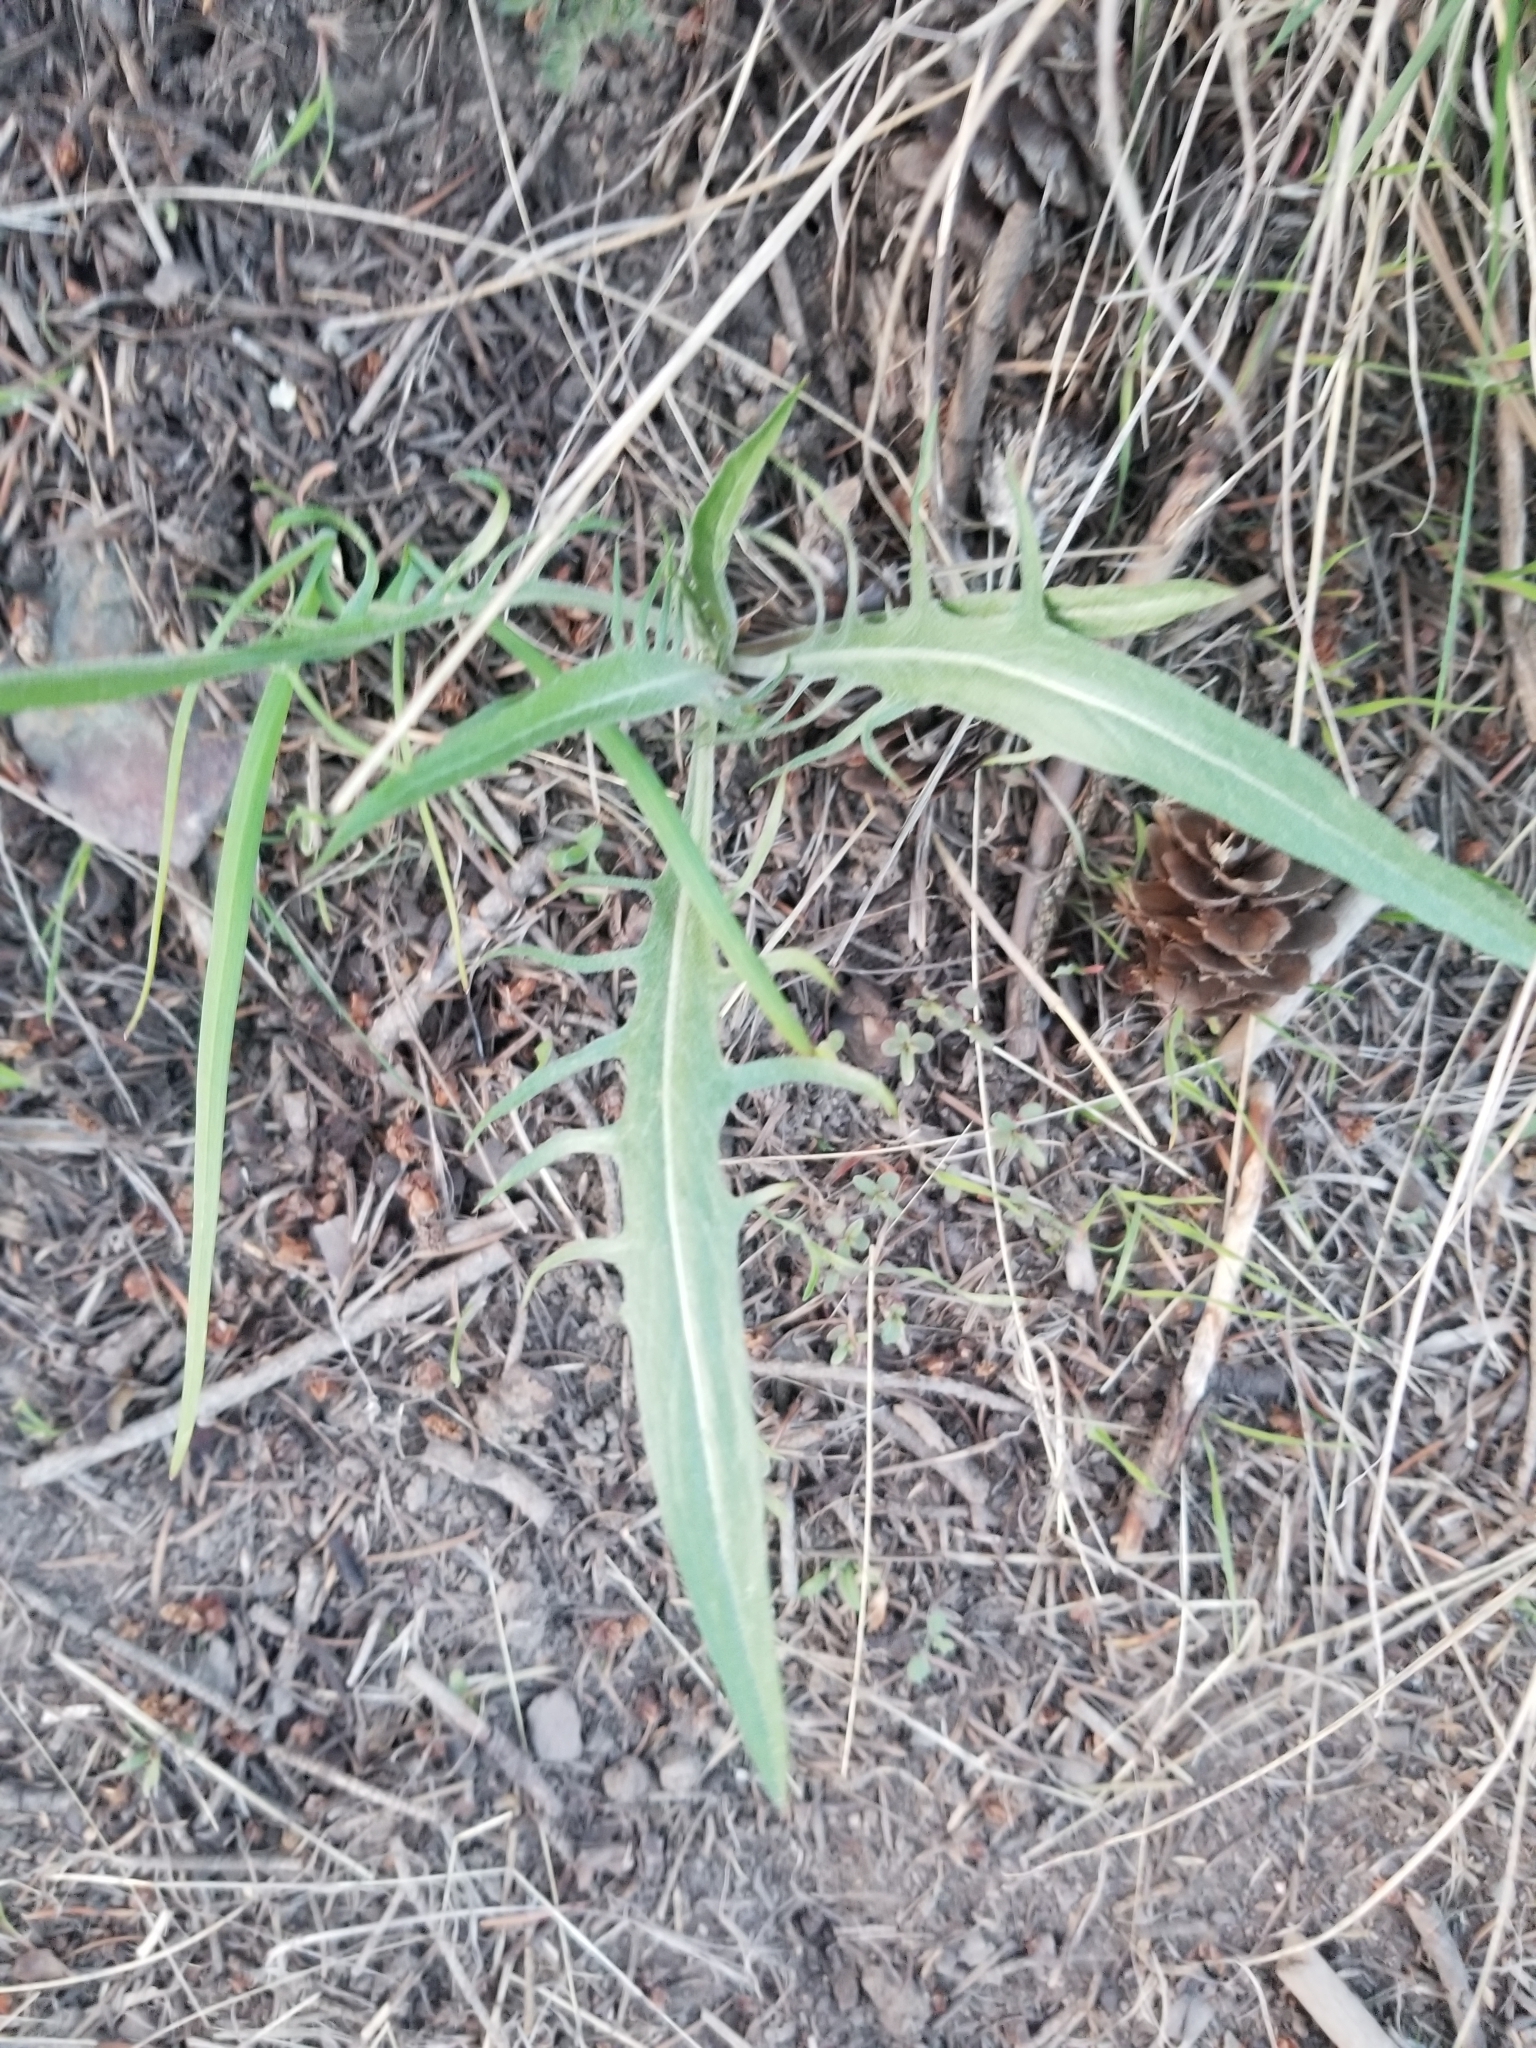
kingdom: Plantae
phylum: Tracheophyta
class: Magnoliopsida
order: Asterales
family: Asteraceae
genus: Crepis
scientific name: Crepis atribarba
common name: Dark hawk's-beard
